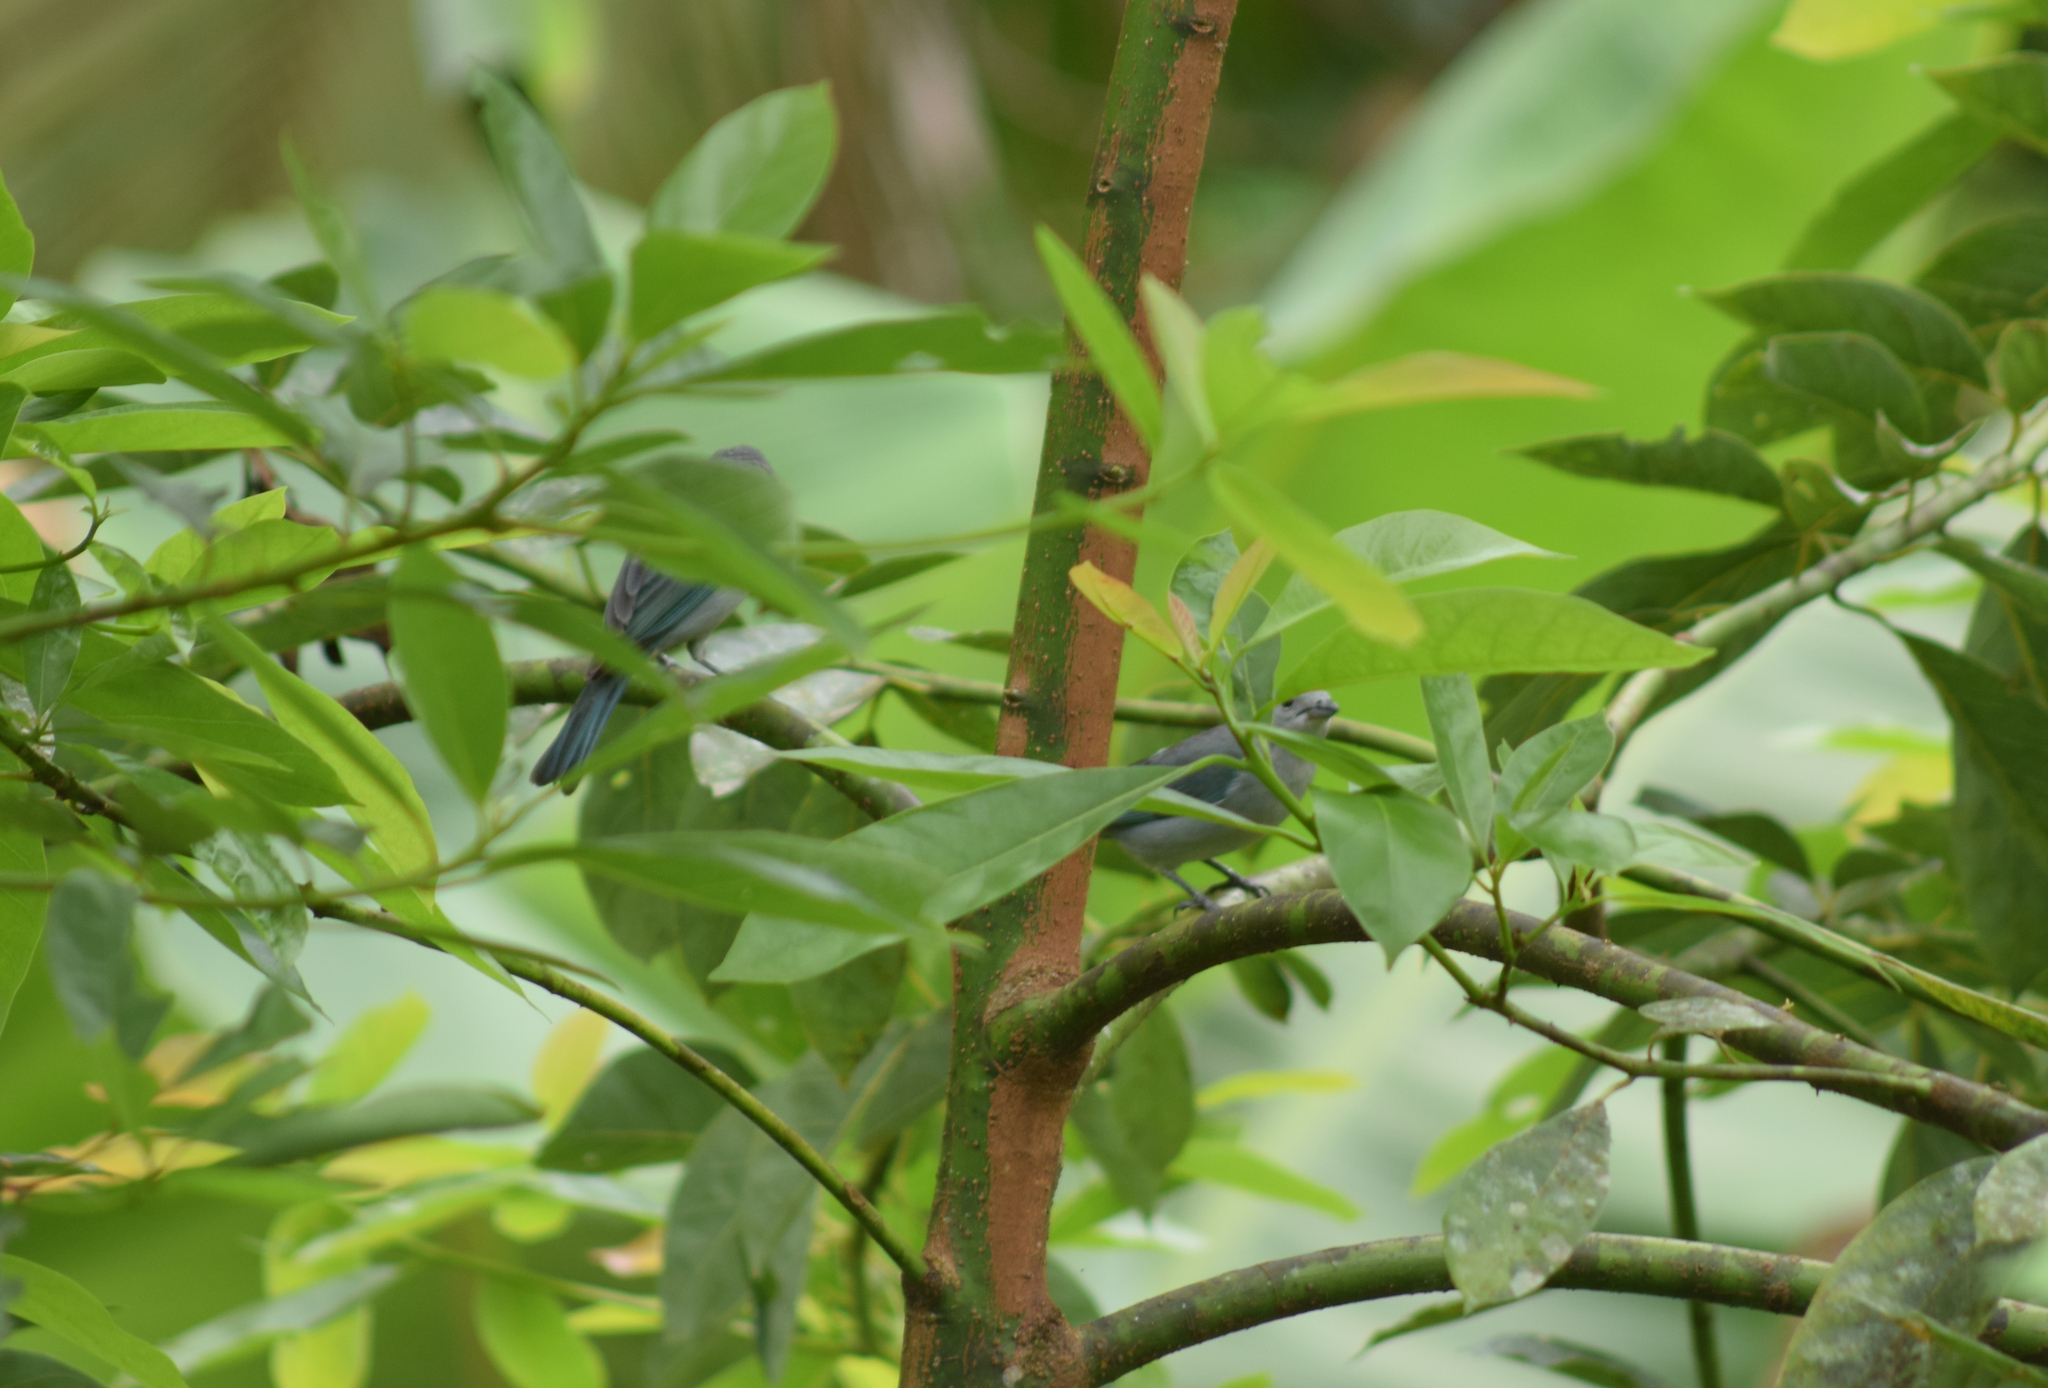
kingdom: Animalia
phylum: Chordata
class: Aves
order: Passeriformes
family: Thraupidae
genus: Thraupis
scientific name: Thraupis sayaca
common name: Sayaca tanager
